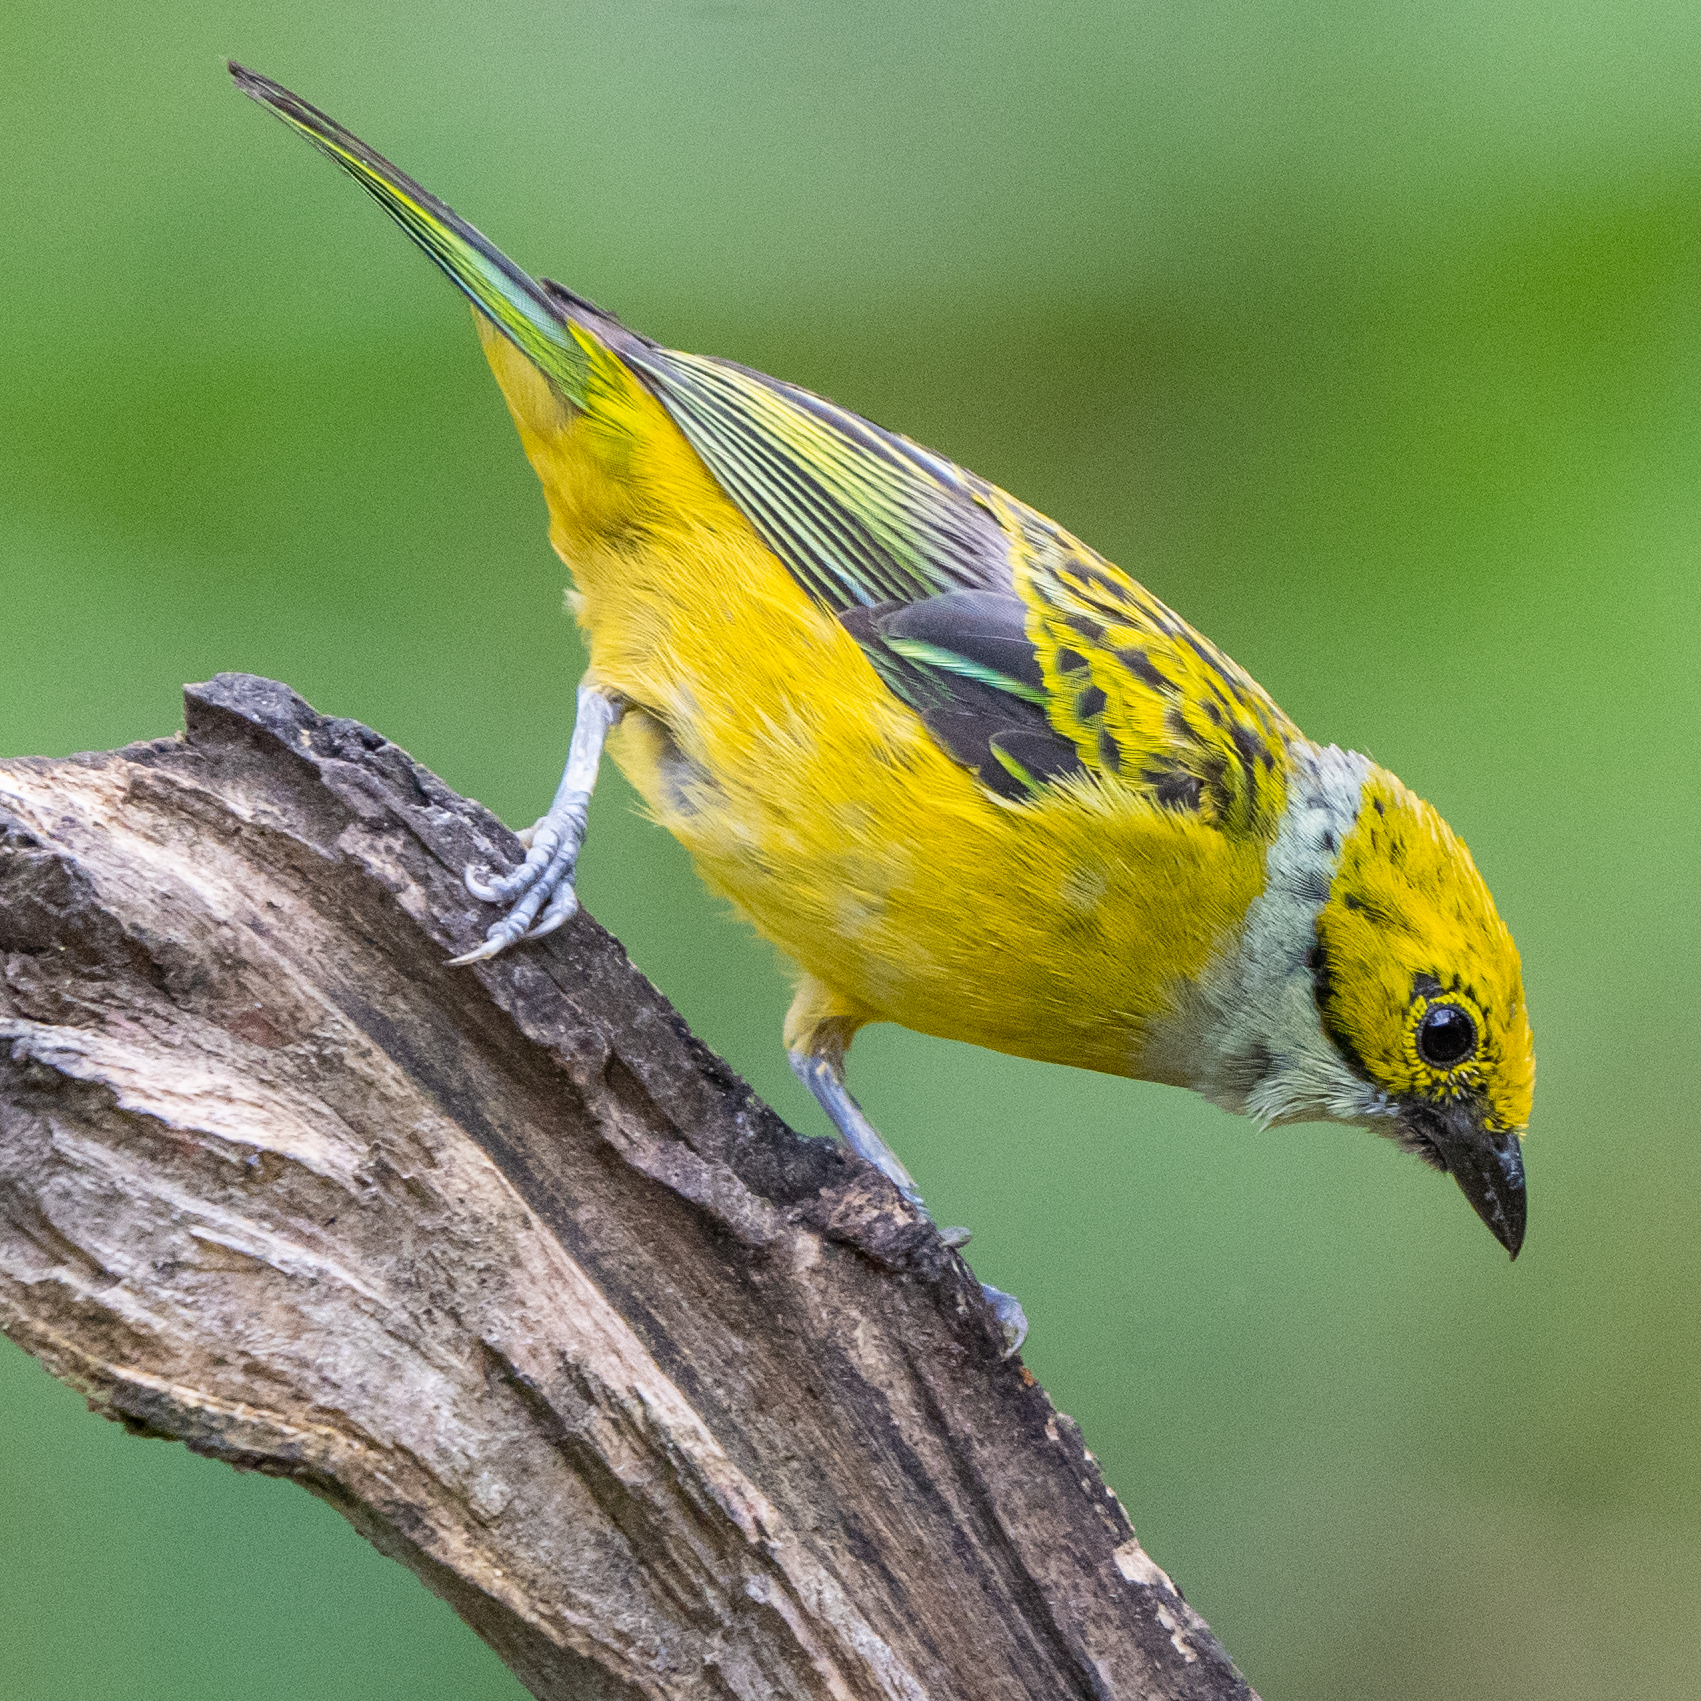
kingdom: Animalia
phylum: Chordata
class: Aves
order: Passeriformes
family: Thraupidae
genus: Tangara
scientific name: Tangara icterocephala
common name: Silver-throated tanager
